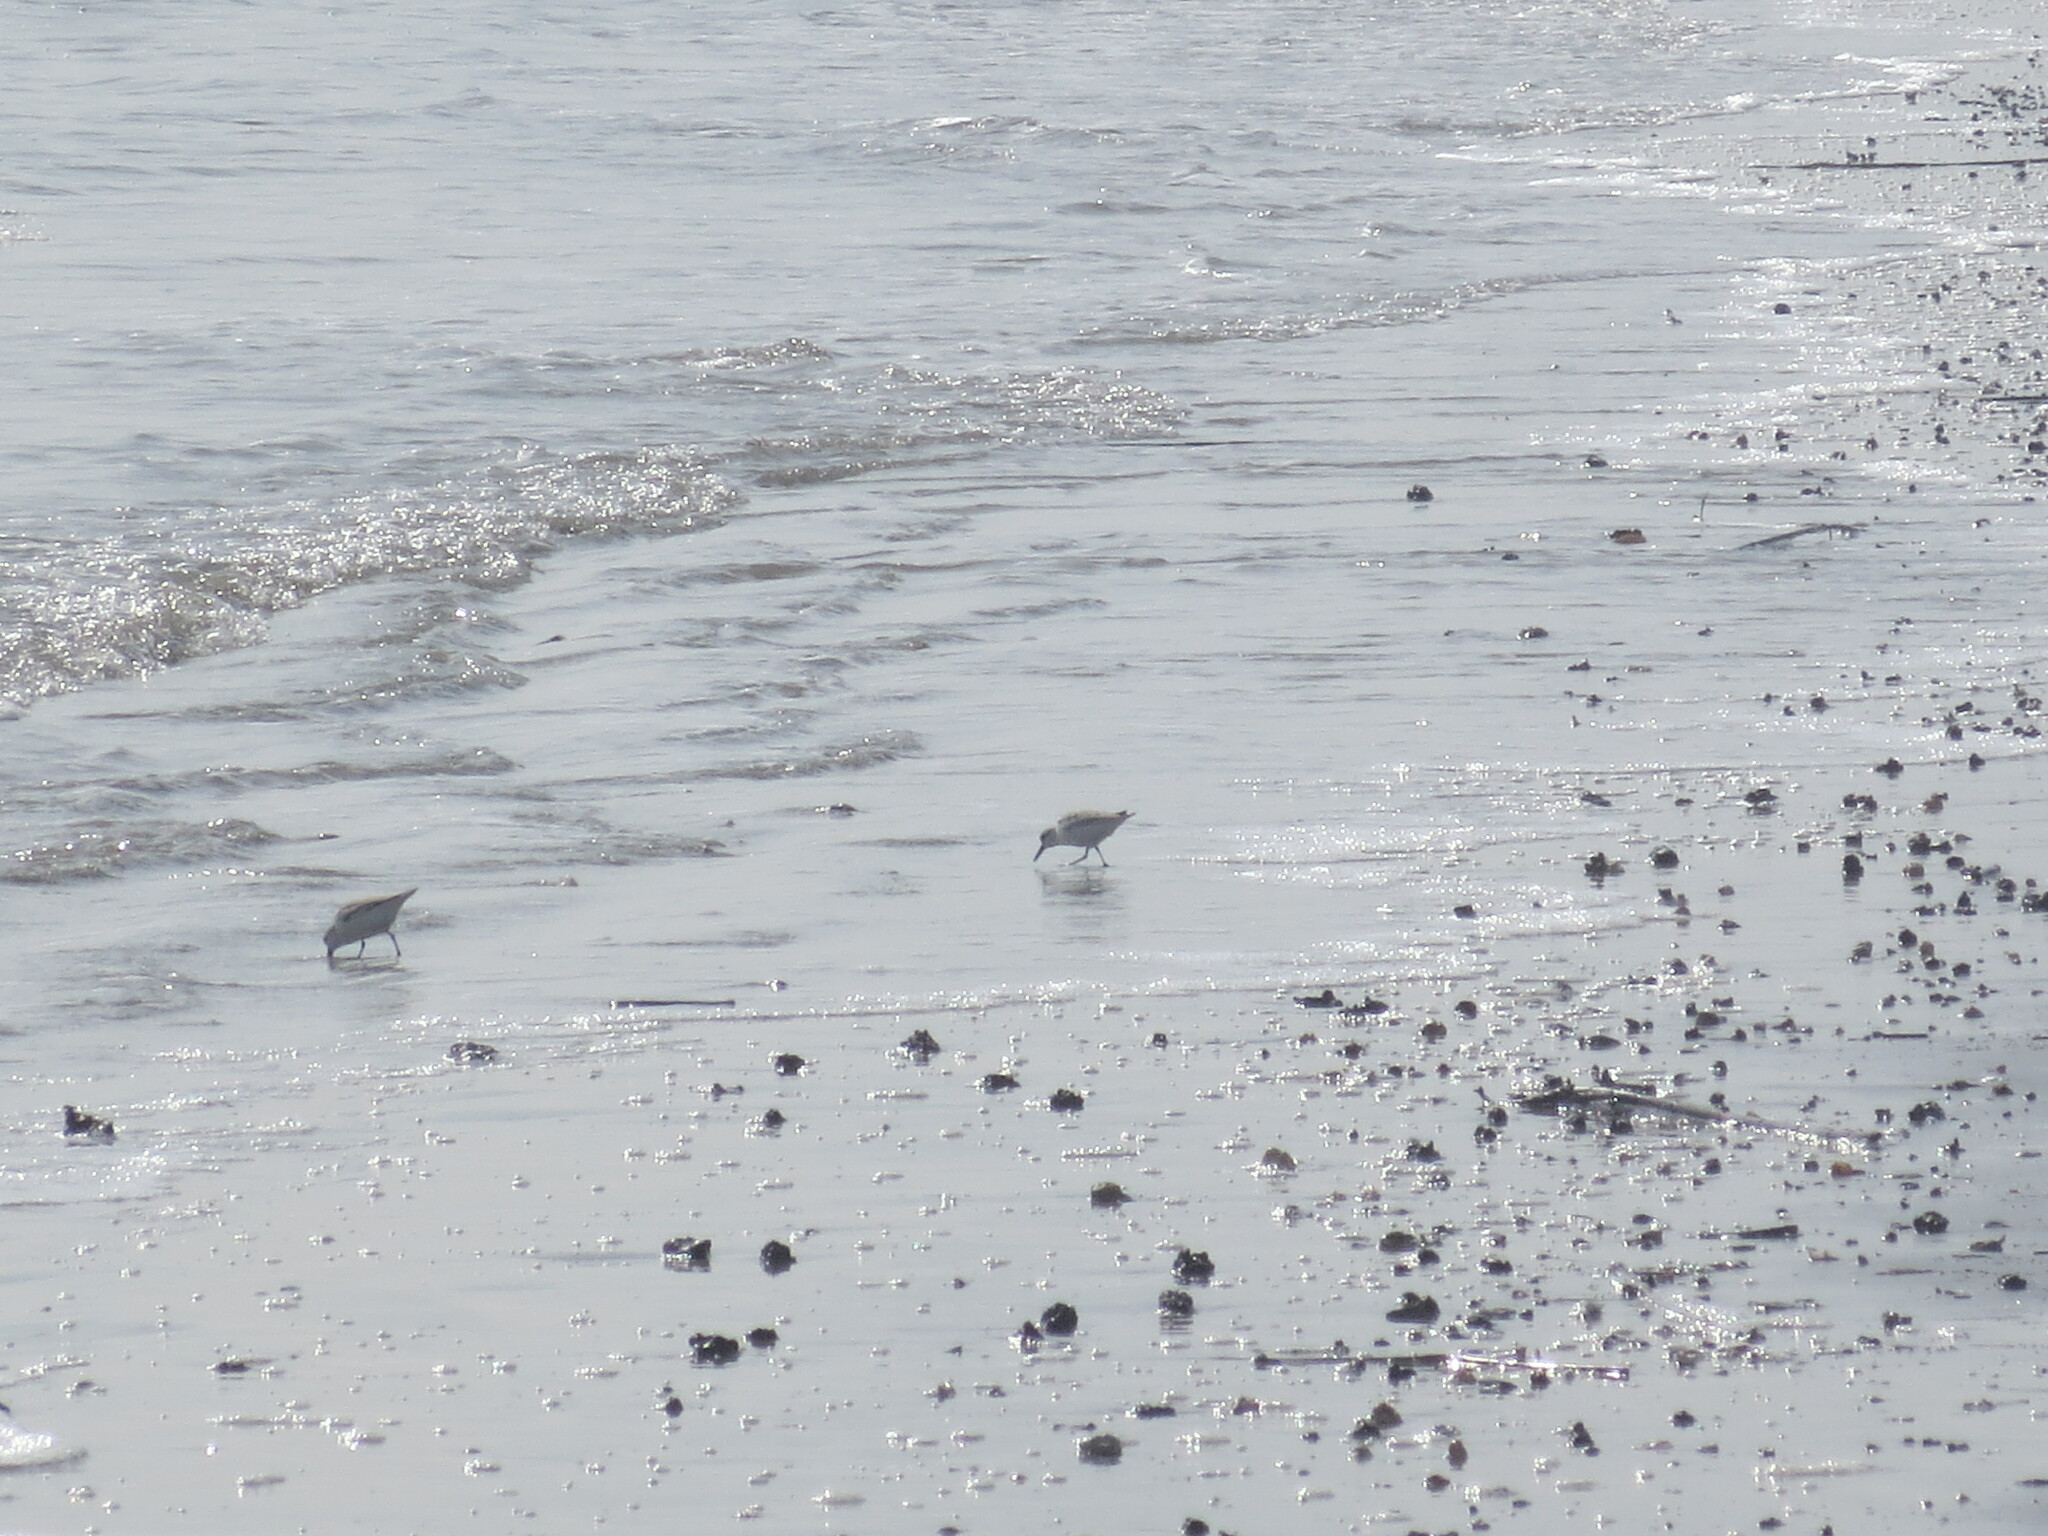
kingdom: Animalia
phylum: Chordata
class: Aves
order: Charadriiformes
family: Scolopacidae
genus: Calidris
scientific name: Calidris alba
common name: Sanderling
